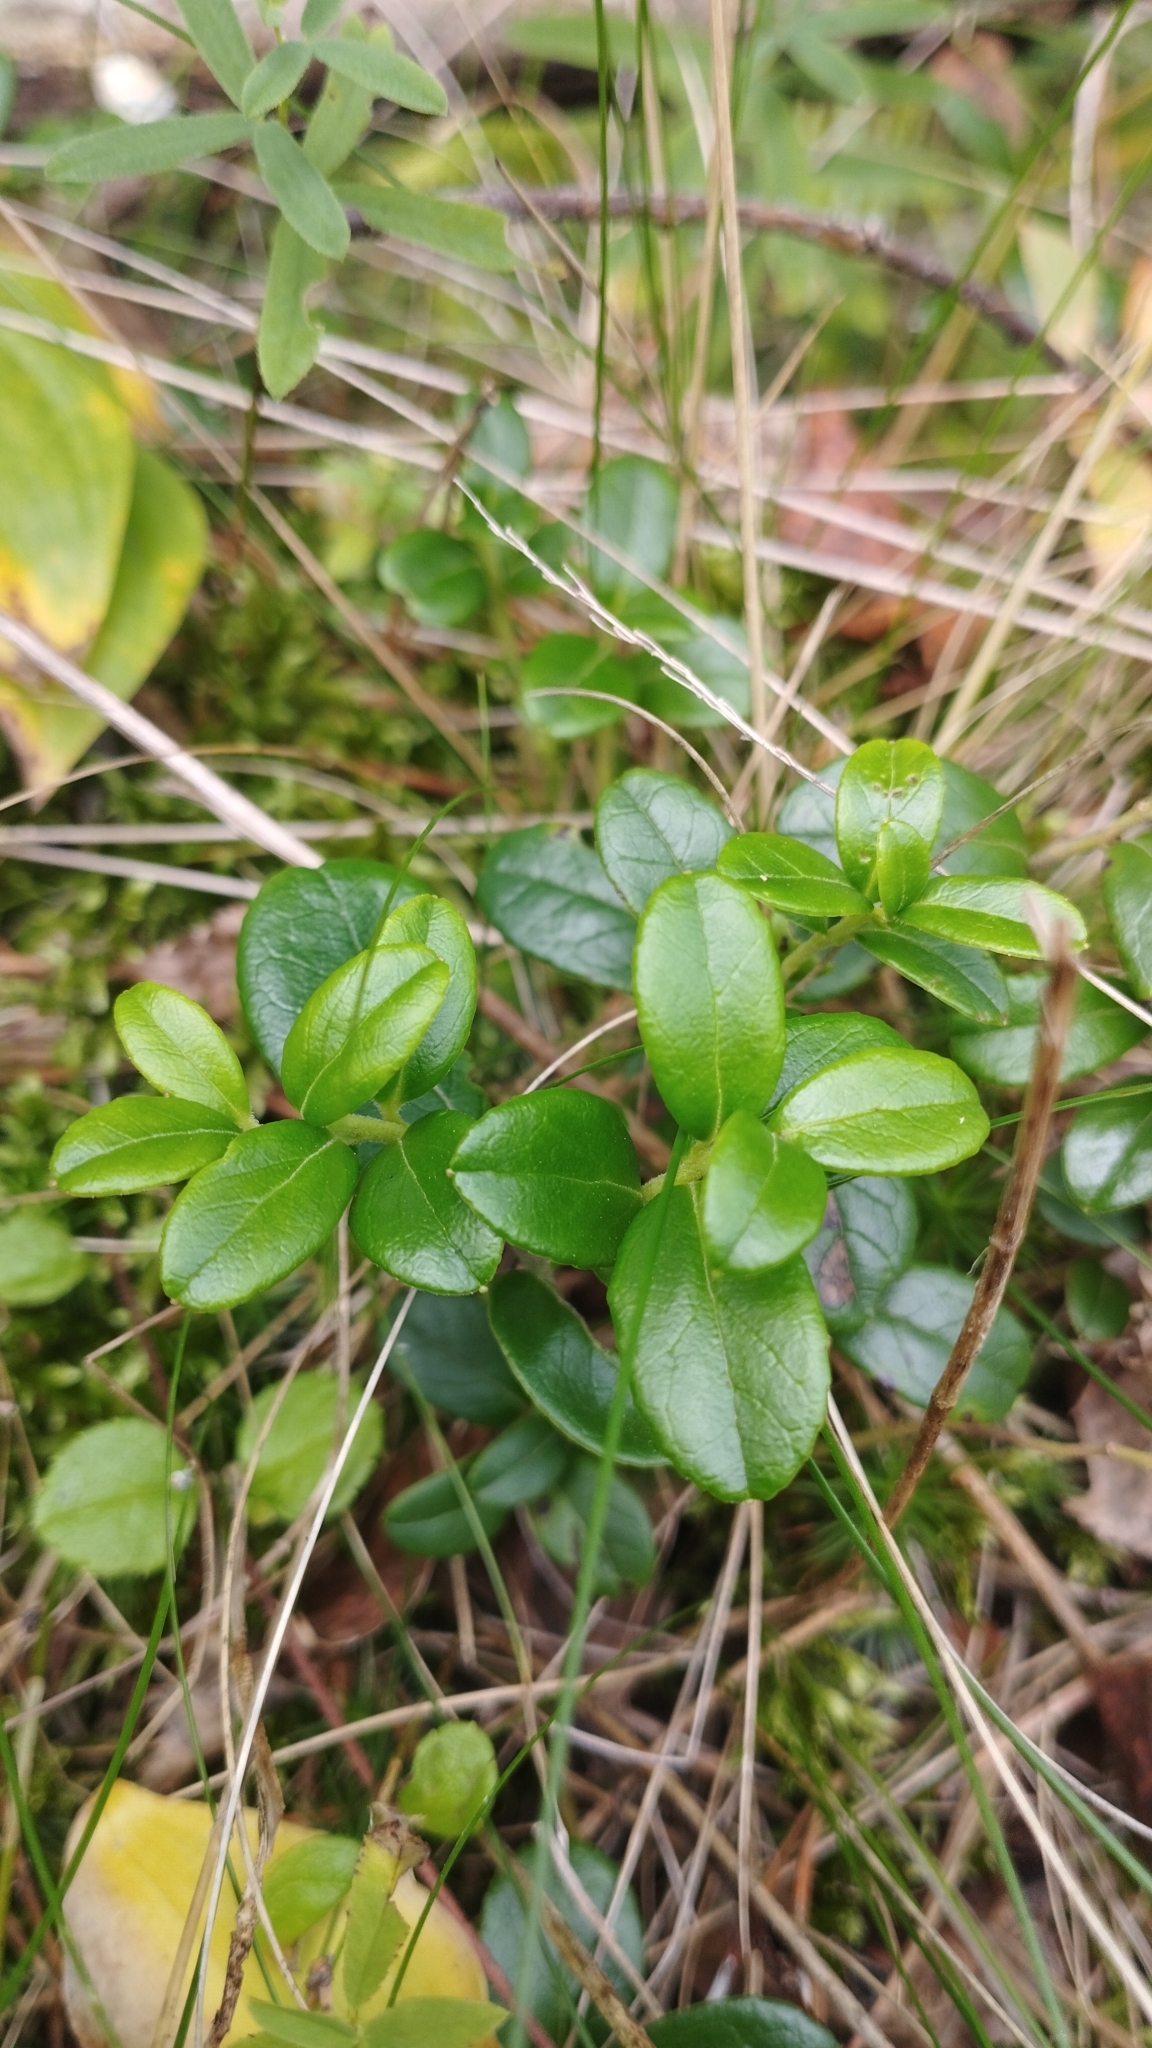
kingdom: Plantae
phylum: Tracheophyta
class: Magnoliopsida
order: Ericales
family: Ericaceae
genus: Vaccinium
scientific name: Vaccinium vitis-idaea
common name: Cowberry
